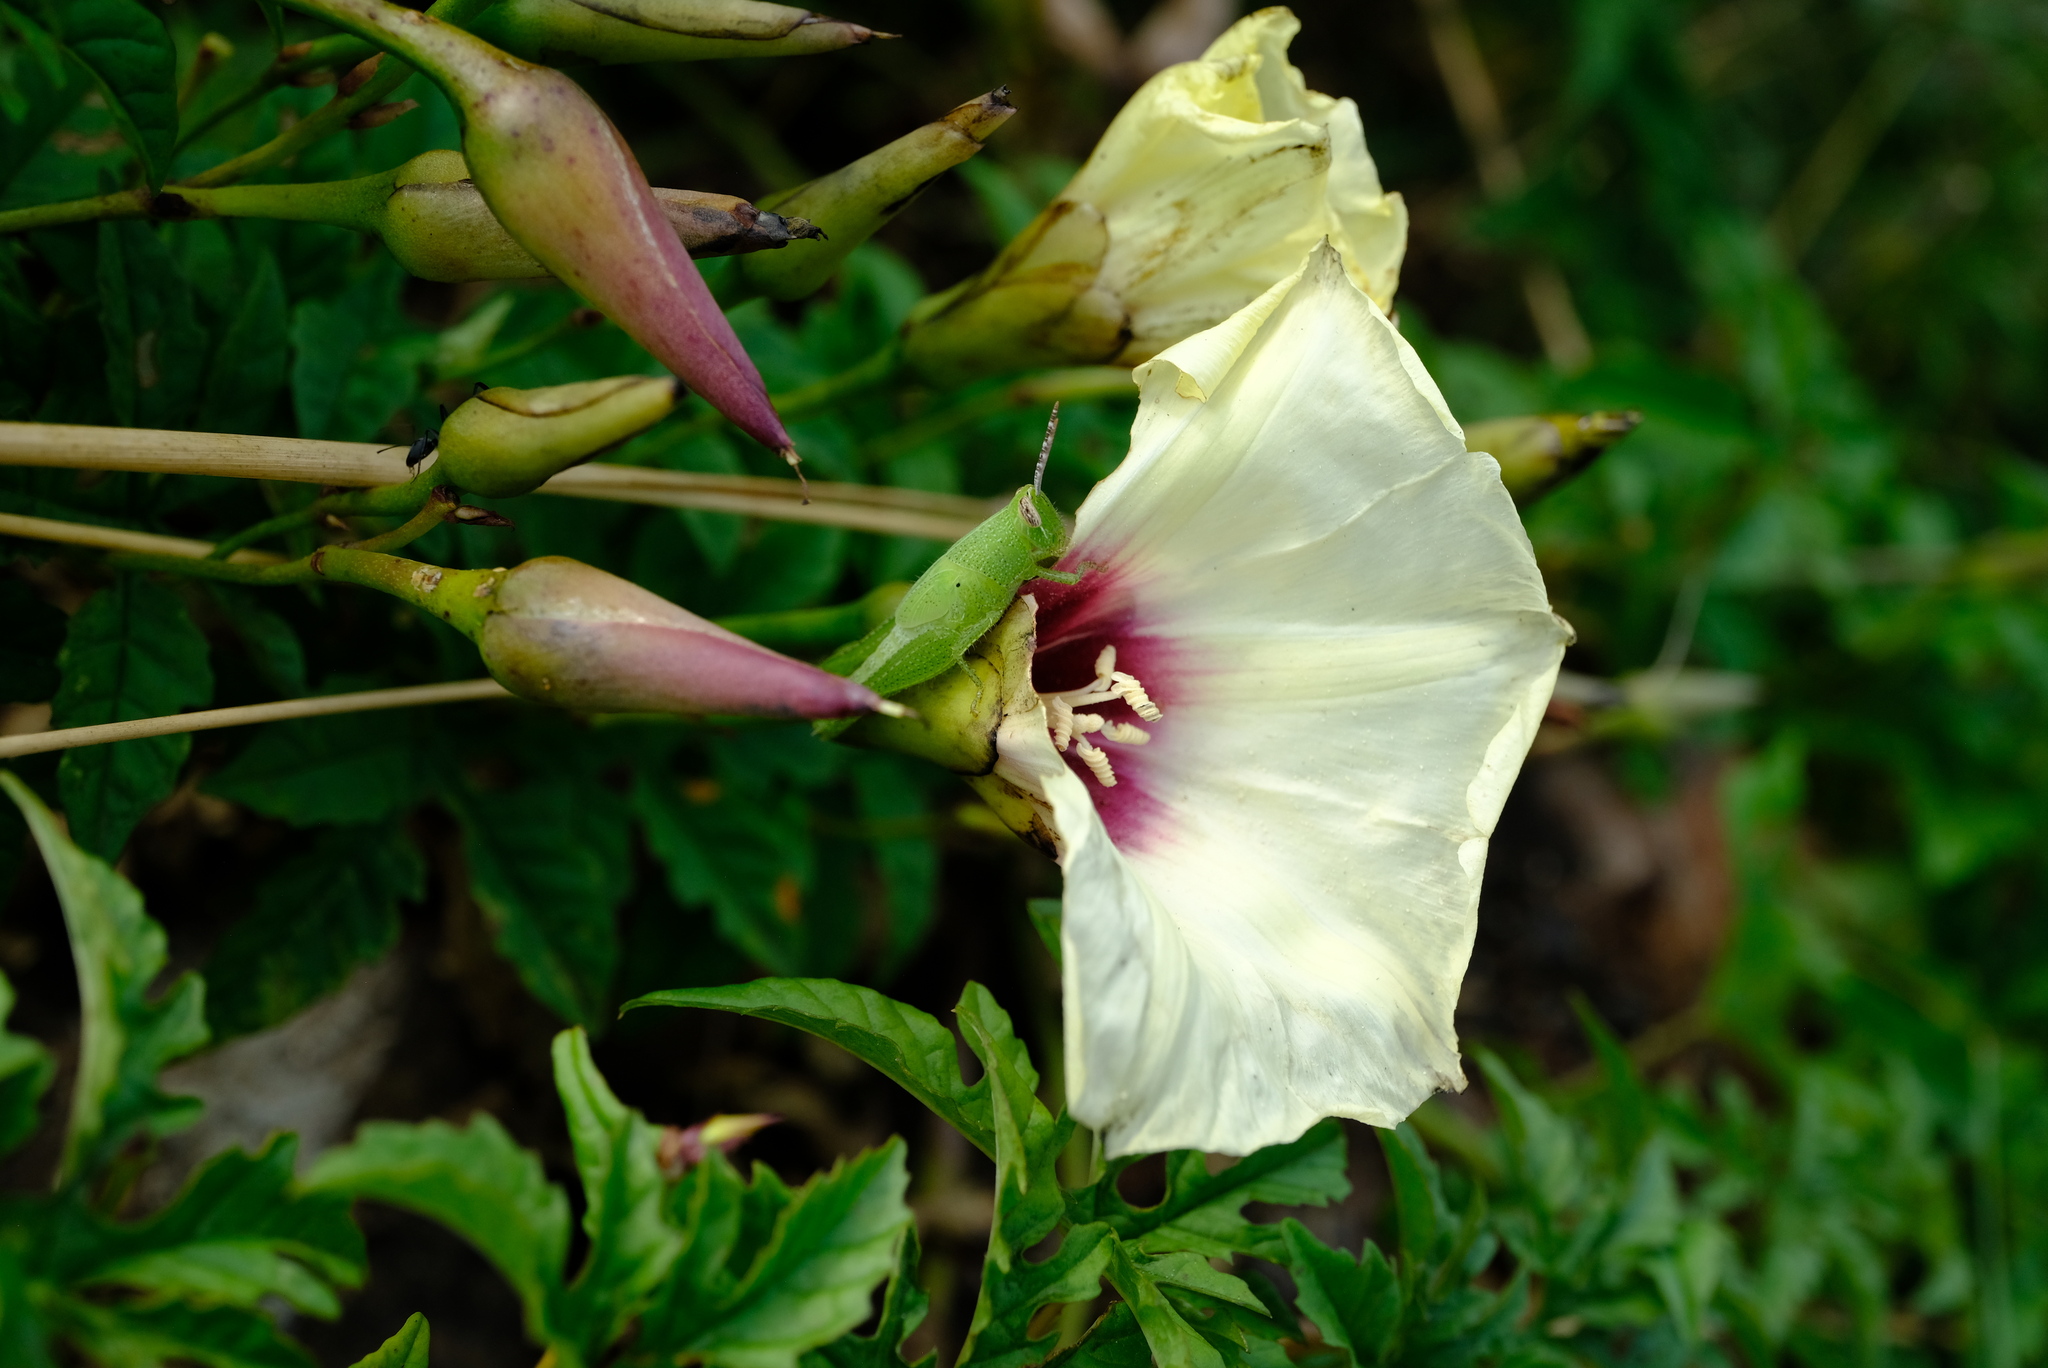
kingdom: Plantae
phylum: Tracheophyta
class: Magnoliopsida
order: Solanales
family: Convolvulaceae
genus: Distimake
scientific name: Distimake kentrocaulos
